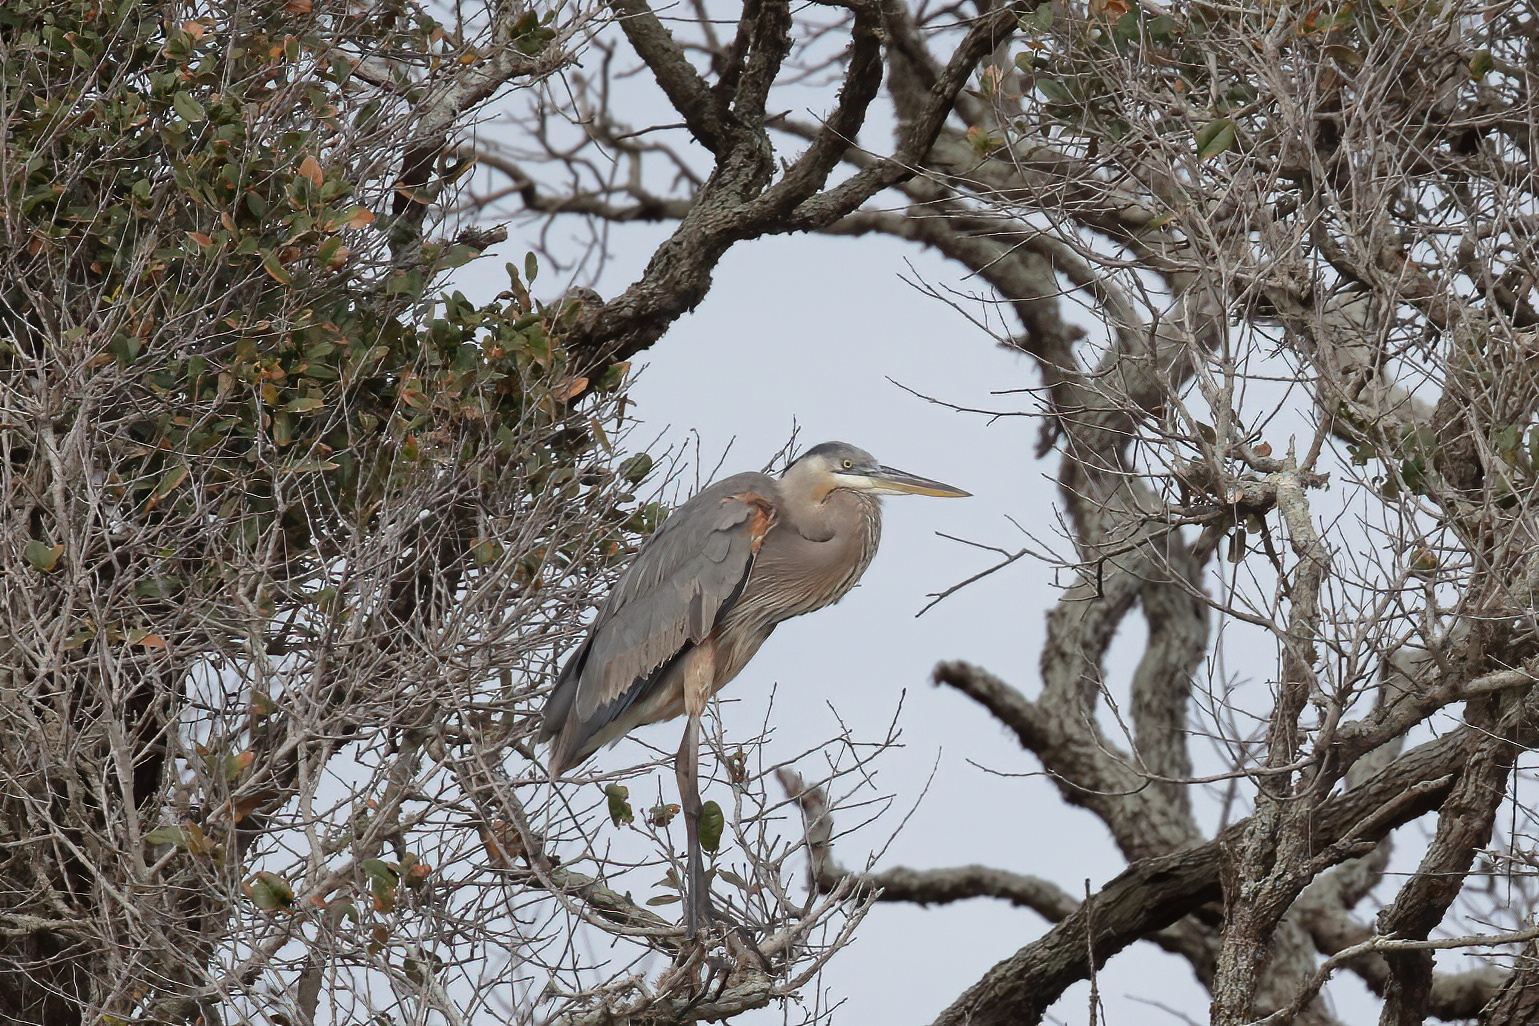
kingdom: Animalia
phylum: Chordata
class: Aves
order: Pelecaniformes
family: Ardeidae
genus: Ardea
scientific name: Ardea herodias
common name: Great blue heron
